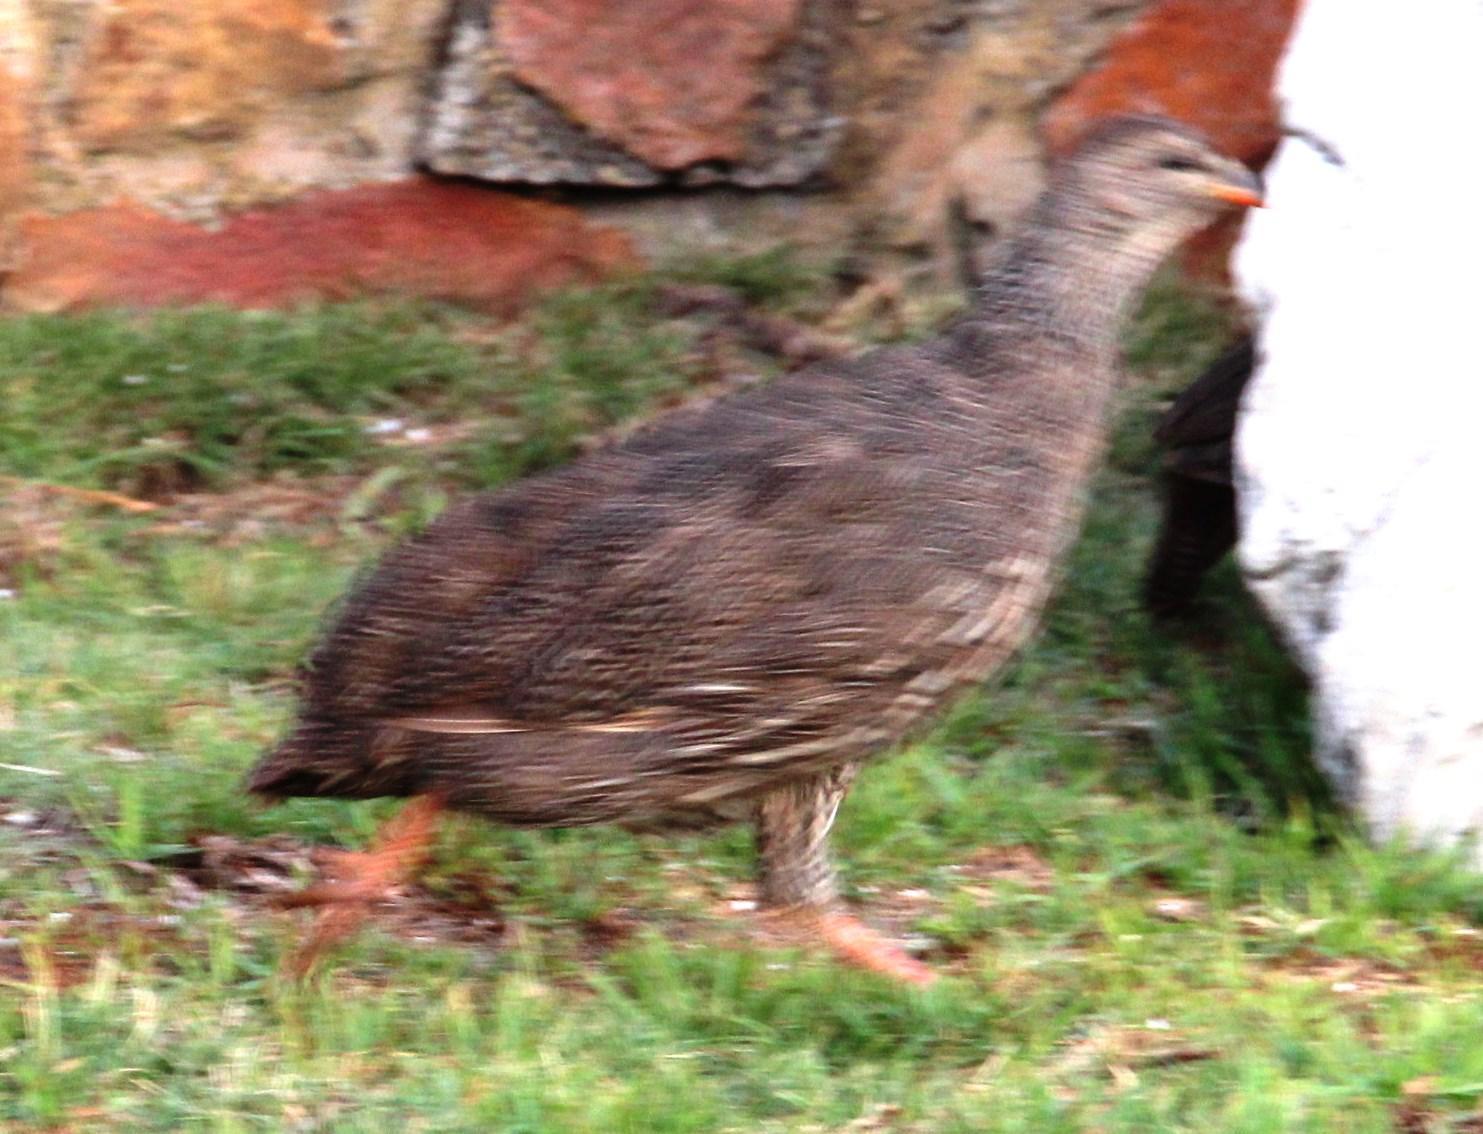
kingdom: Animalia
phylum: Chordata
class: Aves
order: Galliformes
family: Phasianidae
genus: Pternistis
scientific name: Pternistis capensis
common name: Cape spurfowl
